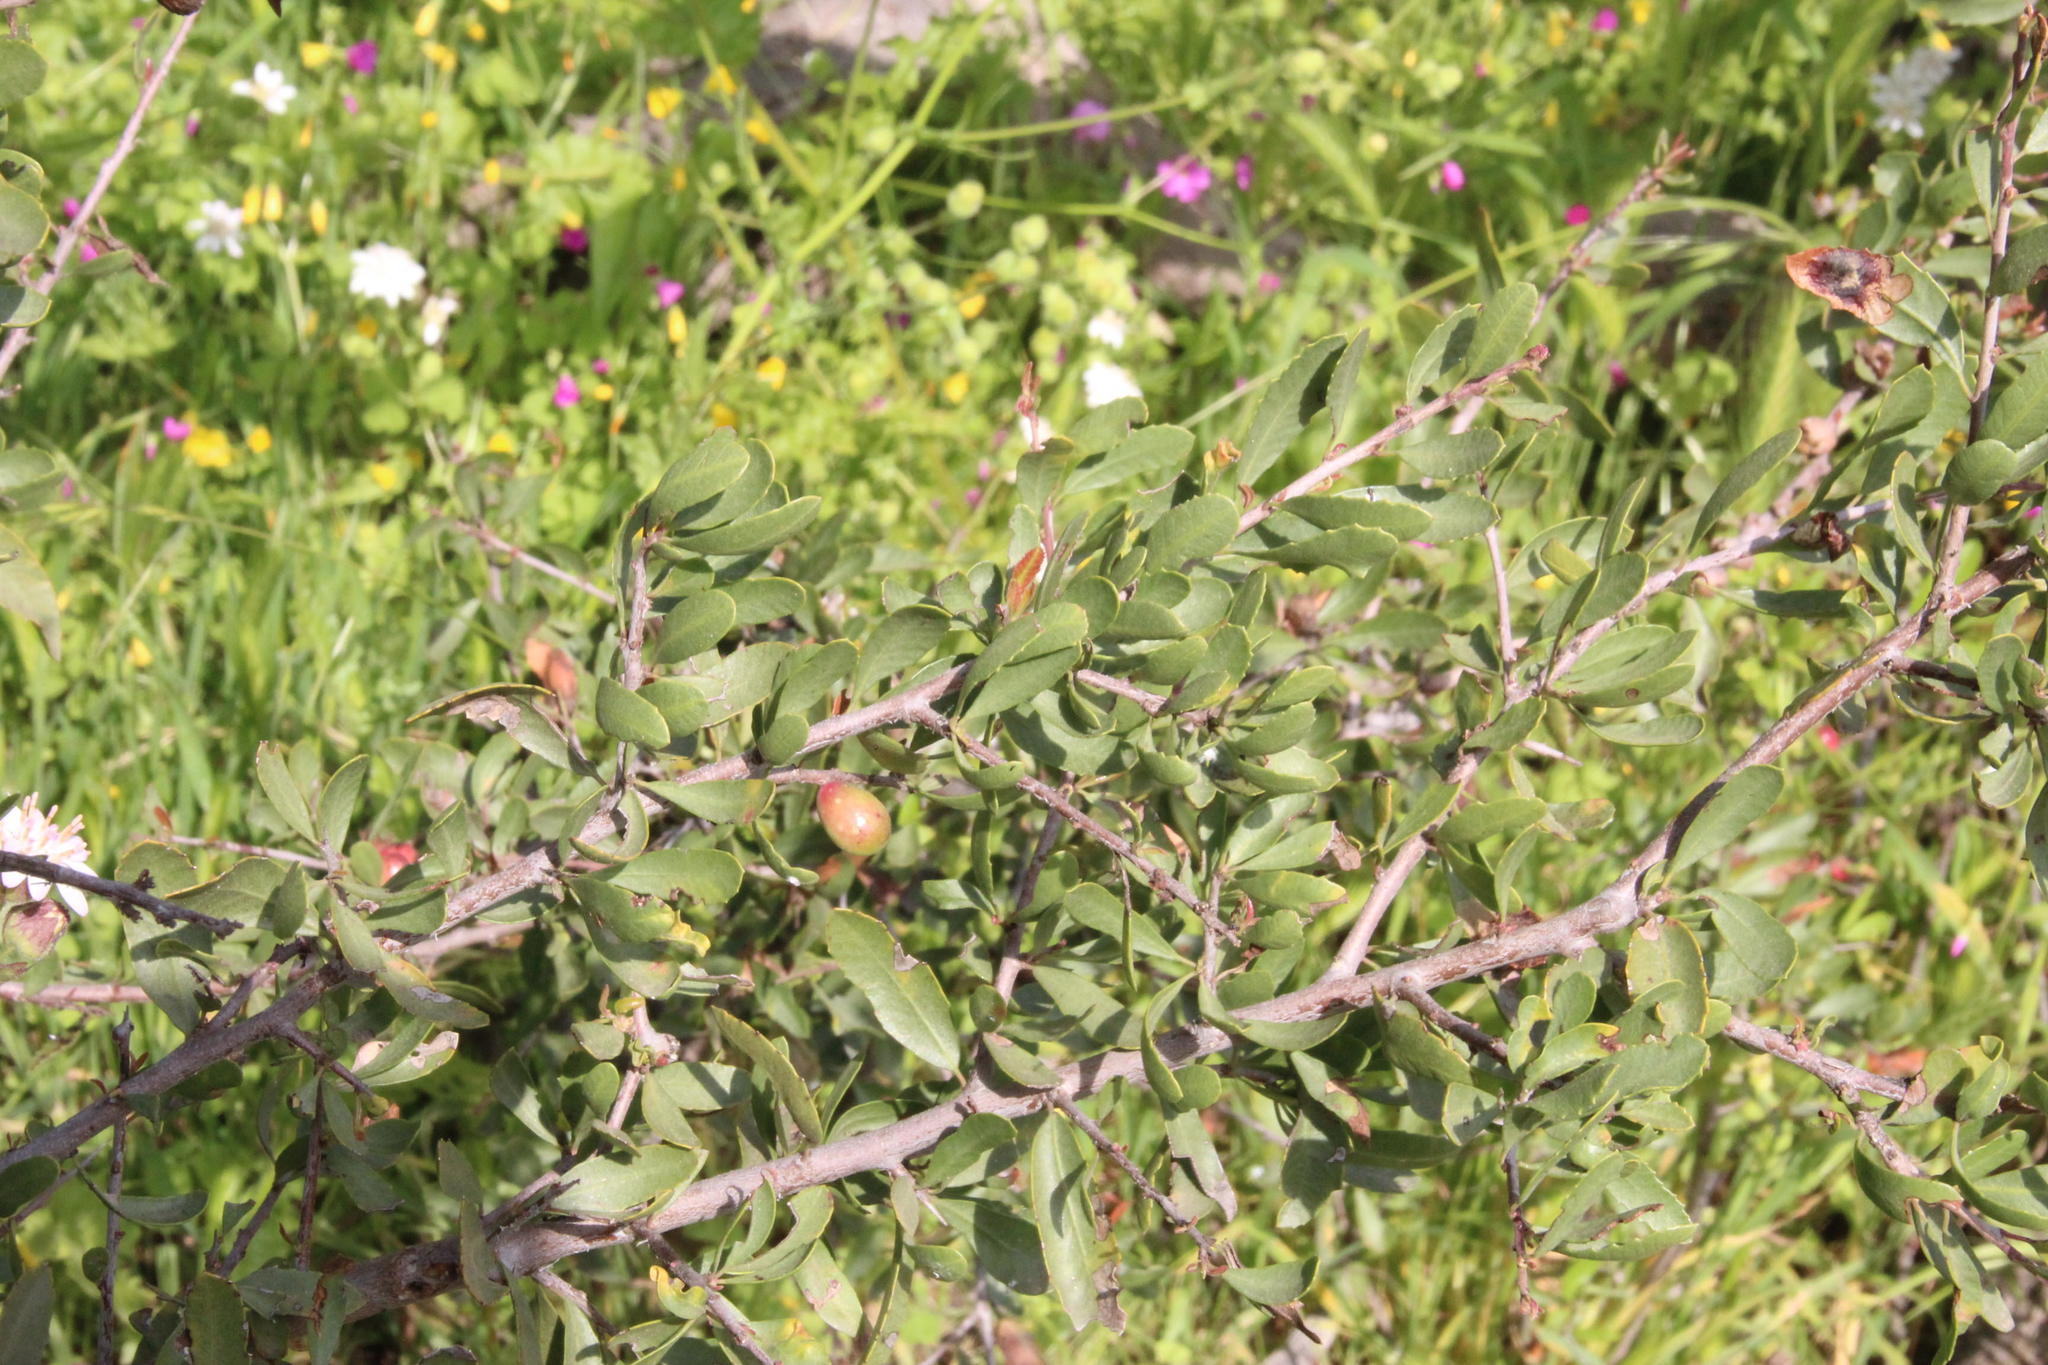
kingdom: Plantae
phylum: Tracheophyta
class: Magnoliopsida
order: Sapindales
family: Anacardiaceae
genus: Schinus
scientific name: Schinus polygama
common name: Hardee peppertree
